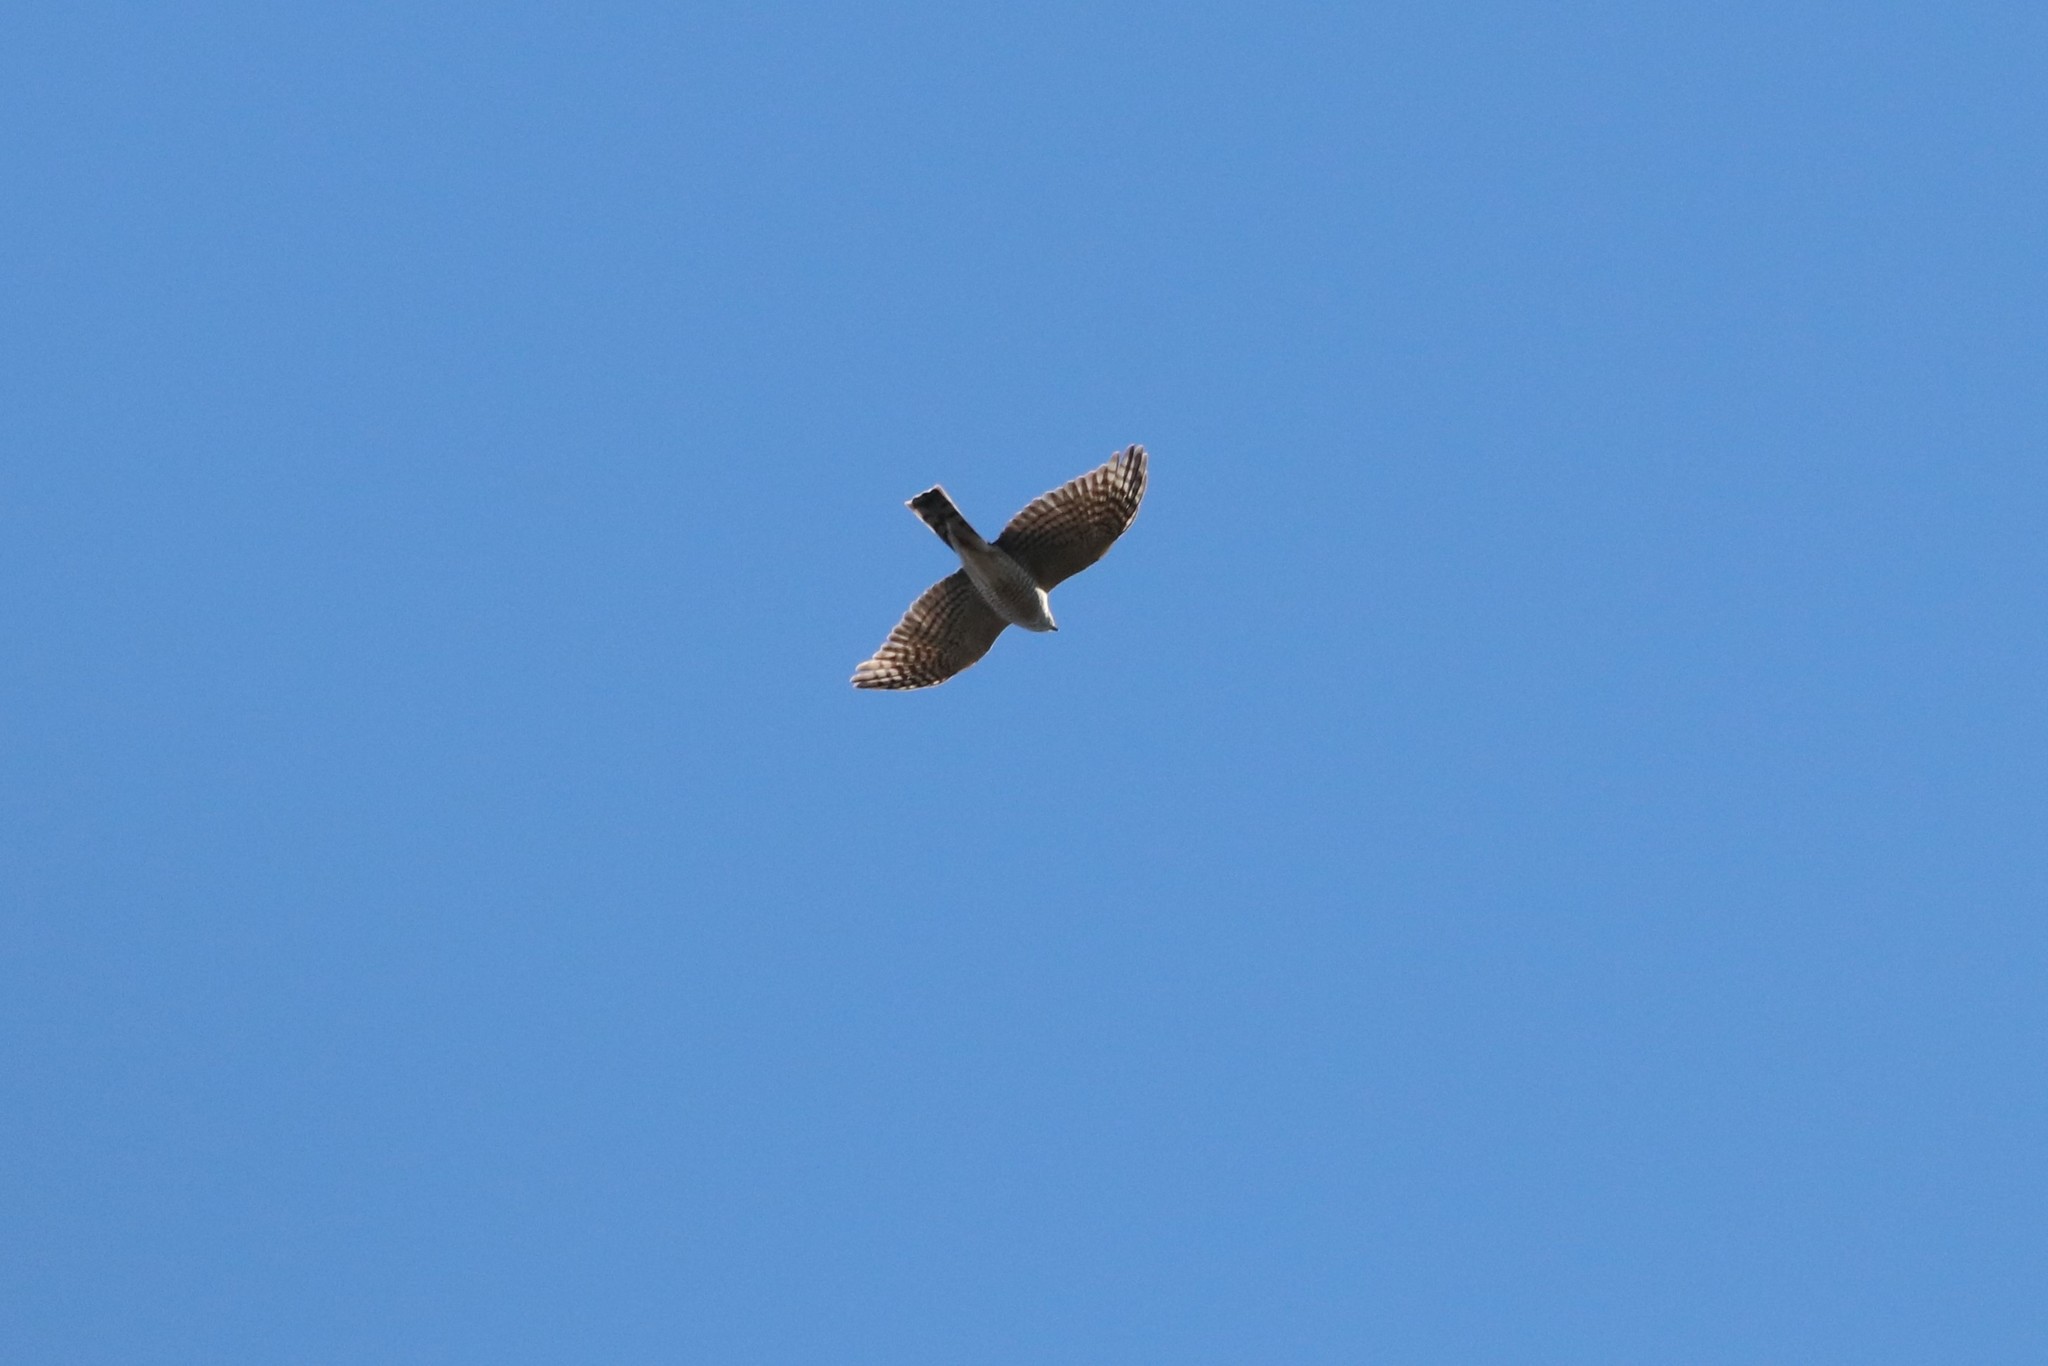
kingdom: Animalia
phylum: Chordata
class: Aves
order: Accipitriformes
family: Accipitridae
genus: Accipiter
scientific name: Accipiter striatus
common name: Sharp-shinned hawk
